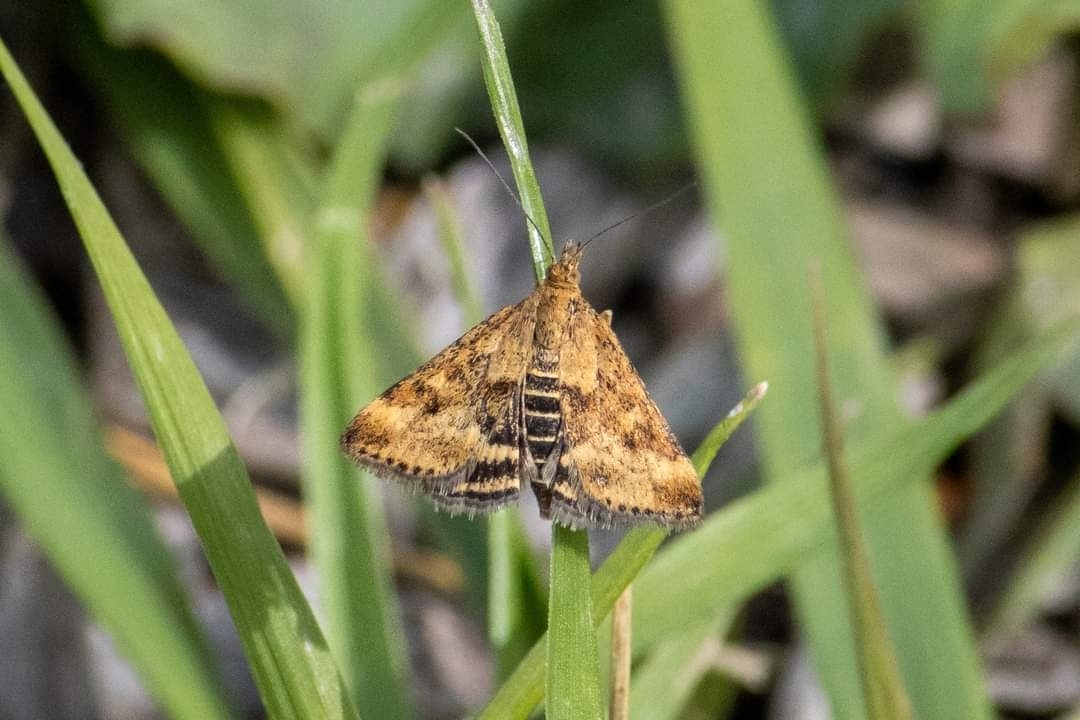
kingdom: Animalia
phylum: Arthropoda
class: Insecta
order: Lepidoptera
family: Crambidae
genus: Pyrausta
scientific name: Pyrausta despicata
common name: Straw-barred pearl
